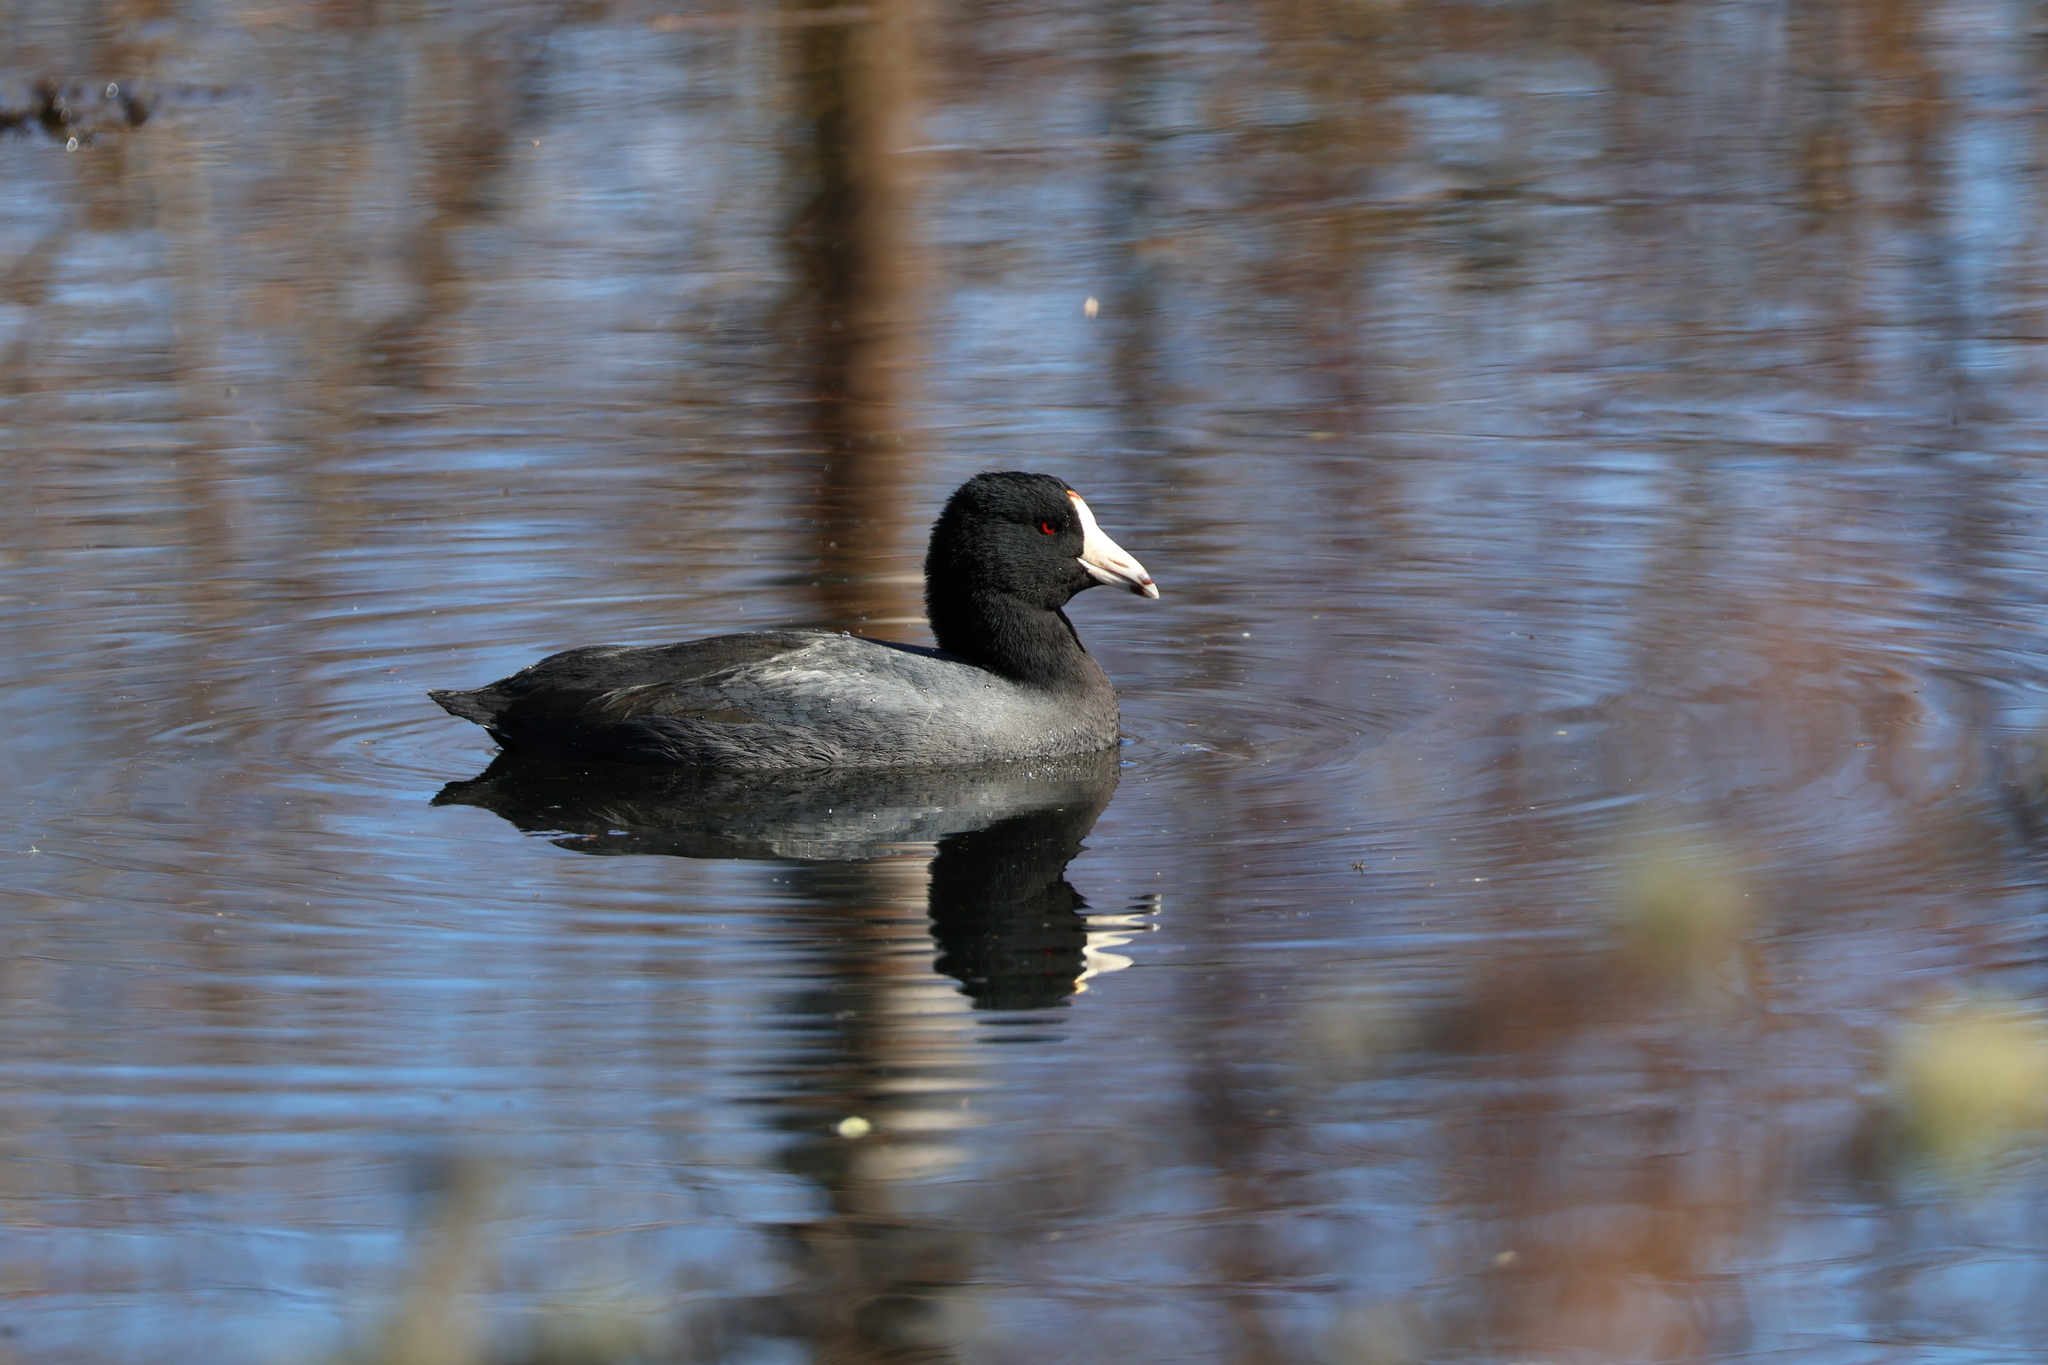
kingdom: Animalia
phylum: Chordata
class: Aves
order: Gruiformes
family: Rallidae
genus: Fulica
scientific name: Fulica americana
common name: American coot
